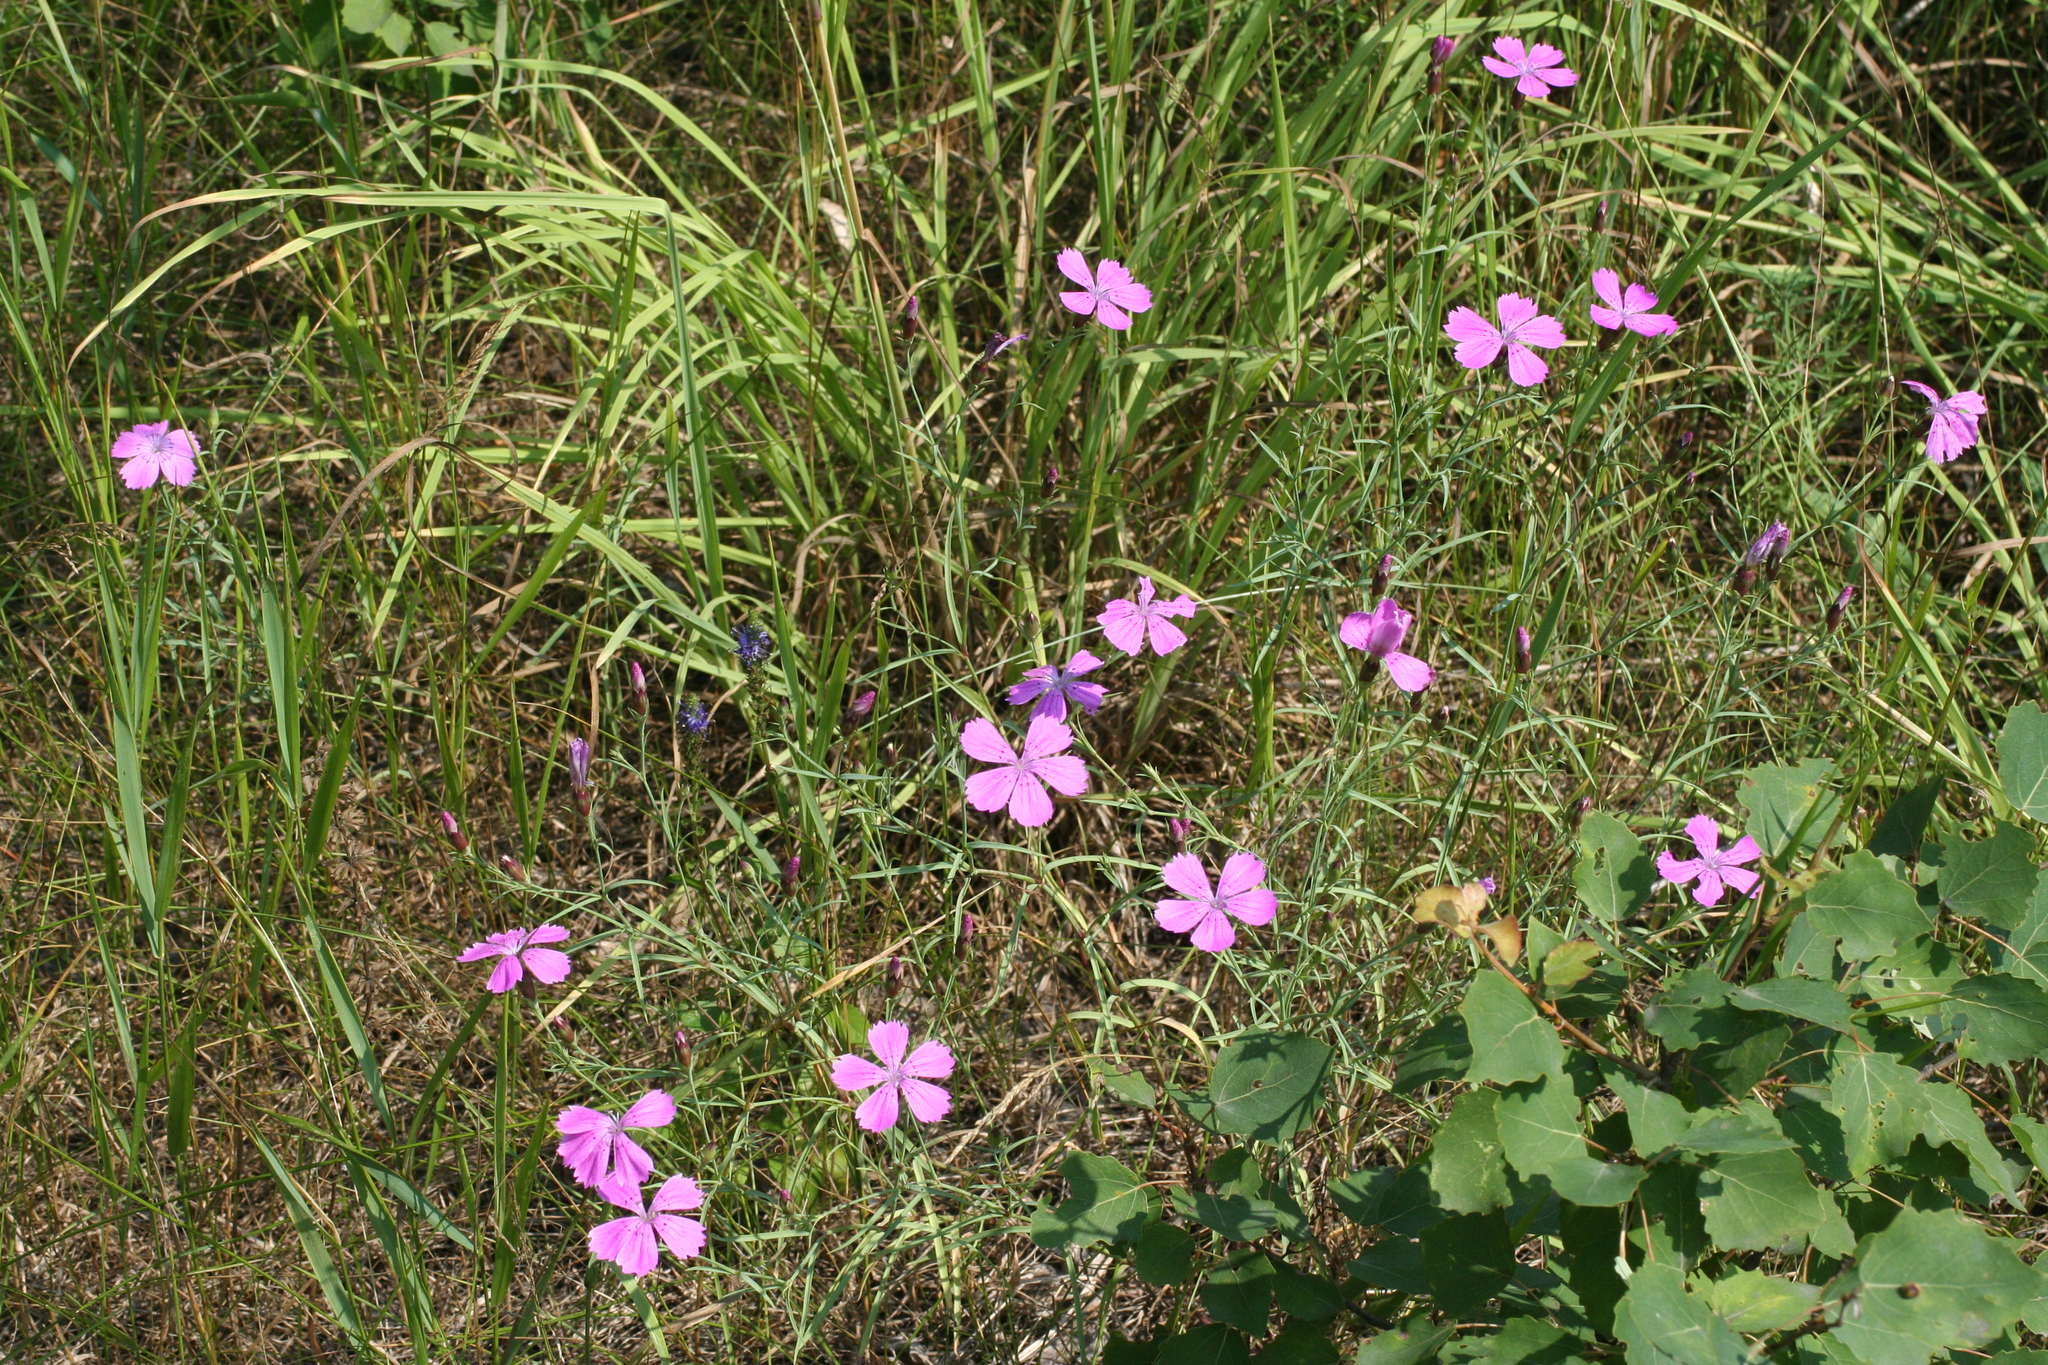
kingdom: Plantae
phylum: Tracheophyta
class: Magnoliopsida
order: Caryophyllales
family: Caryophyllaceae
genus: Dianthus
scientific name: Dianthus chinensis
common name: Rainbow pink
